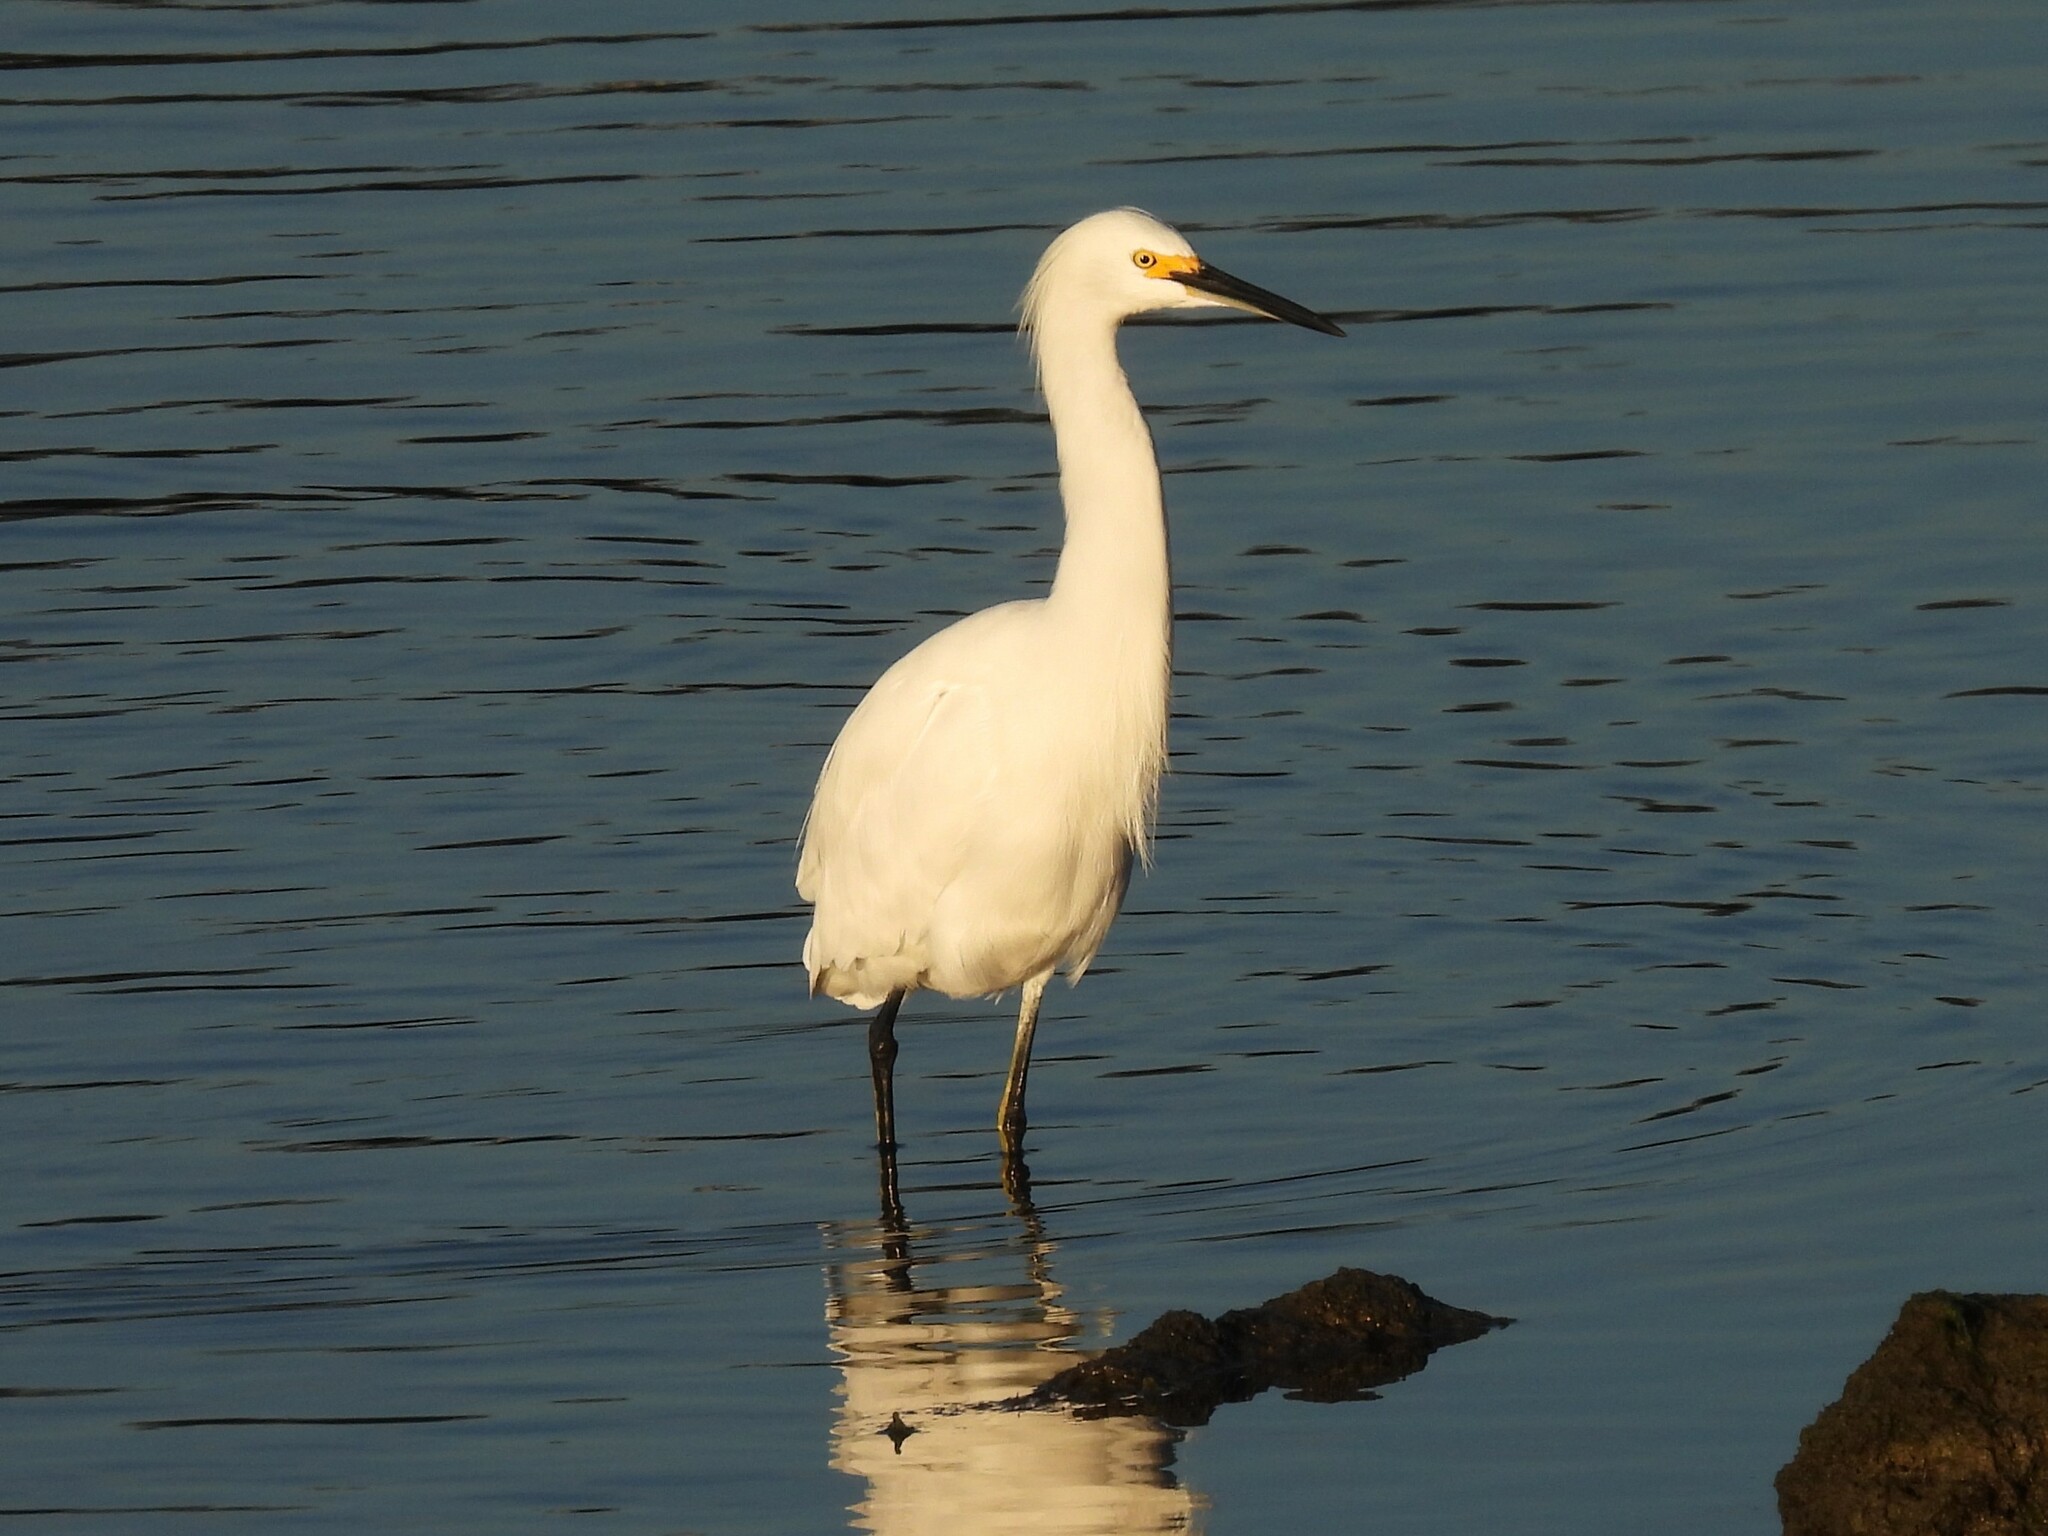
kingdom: Animalia
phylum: Chordata
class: Aves
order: Pelecaniformes
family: Ardeidae
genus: Egretta
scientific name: Egretta thula
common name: Snowy egret
